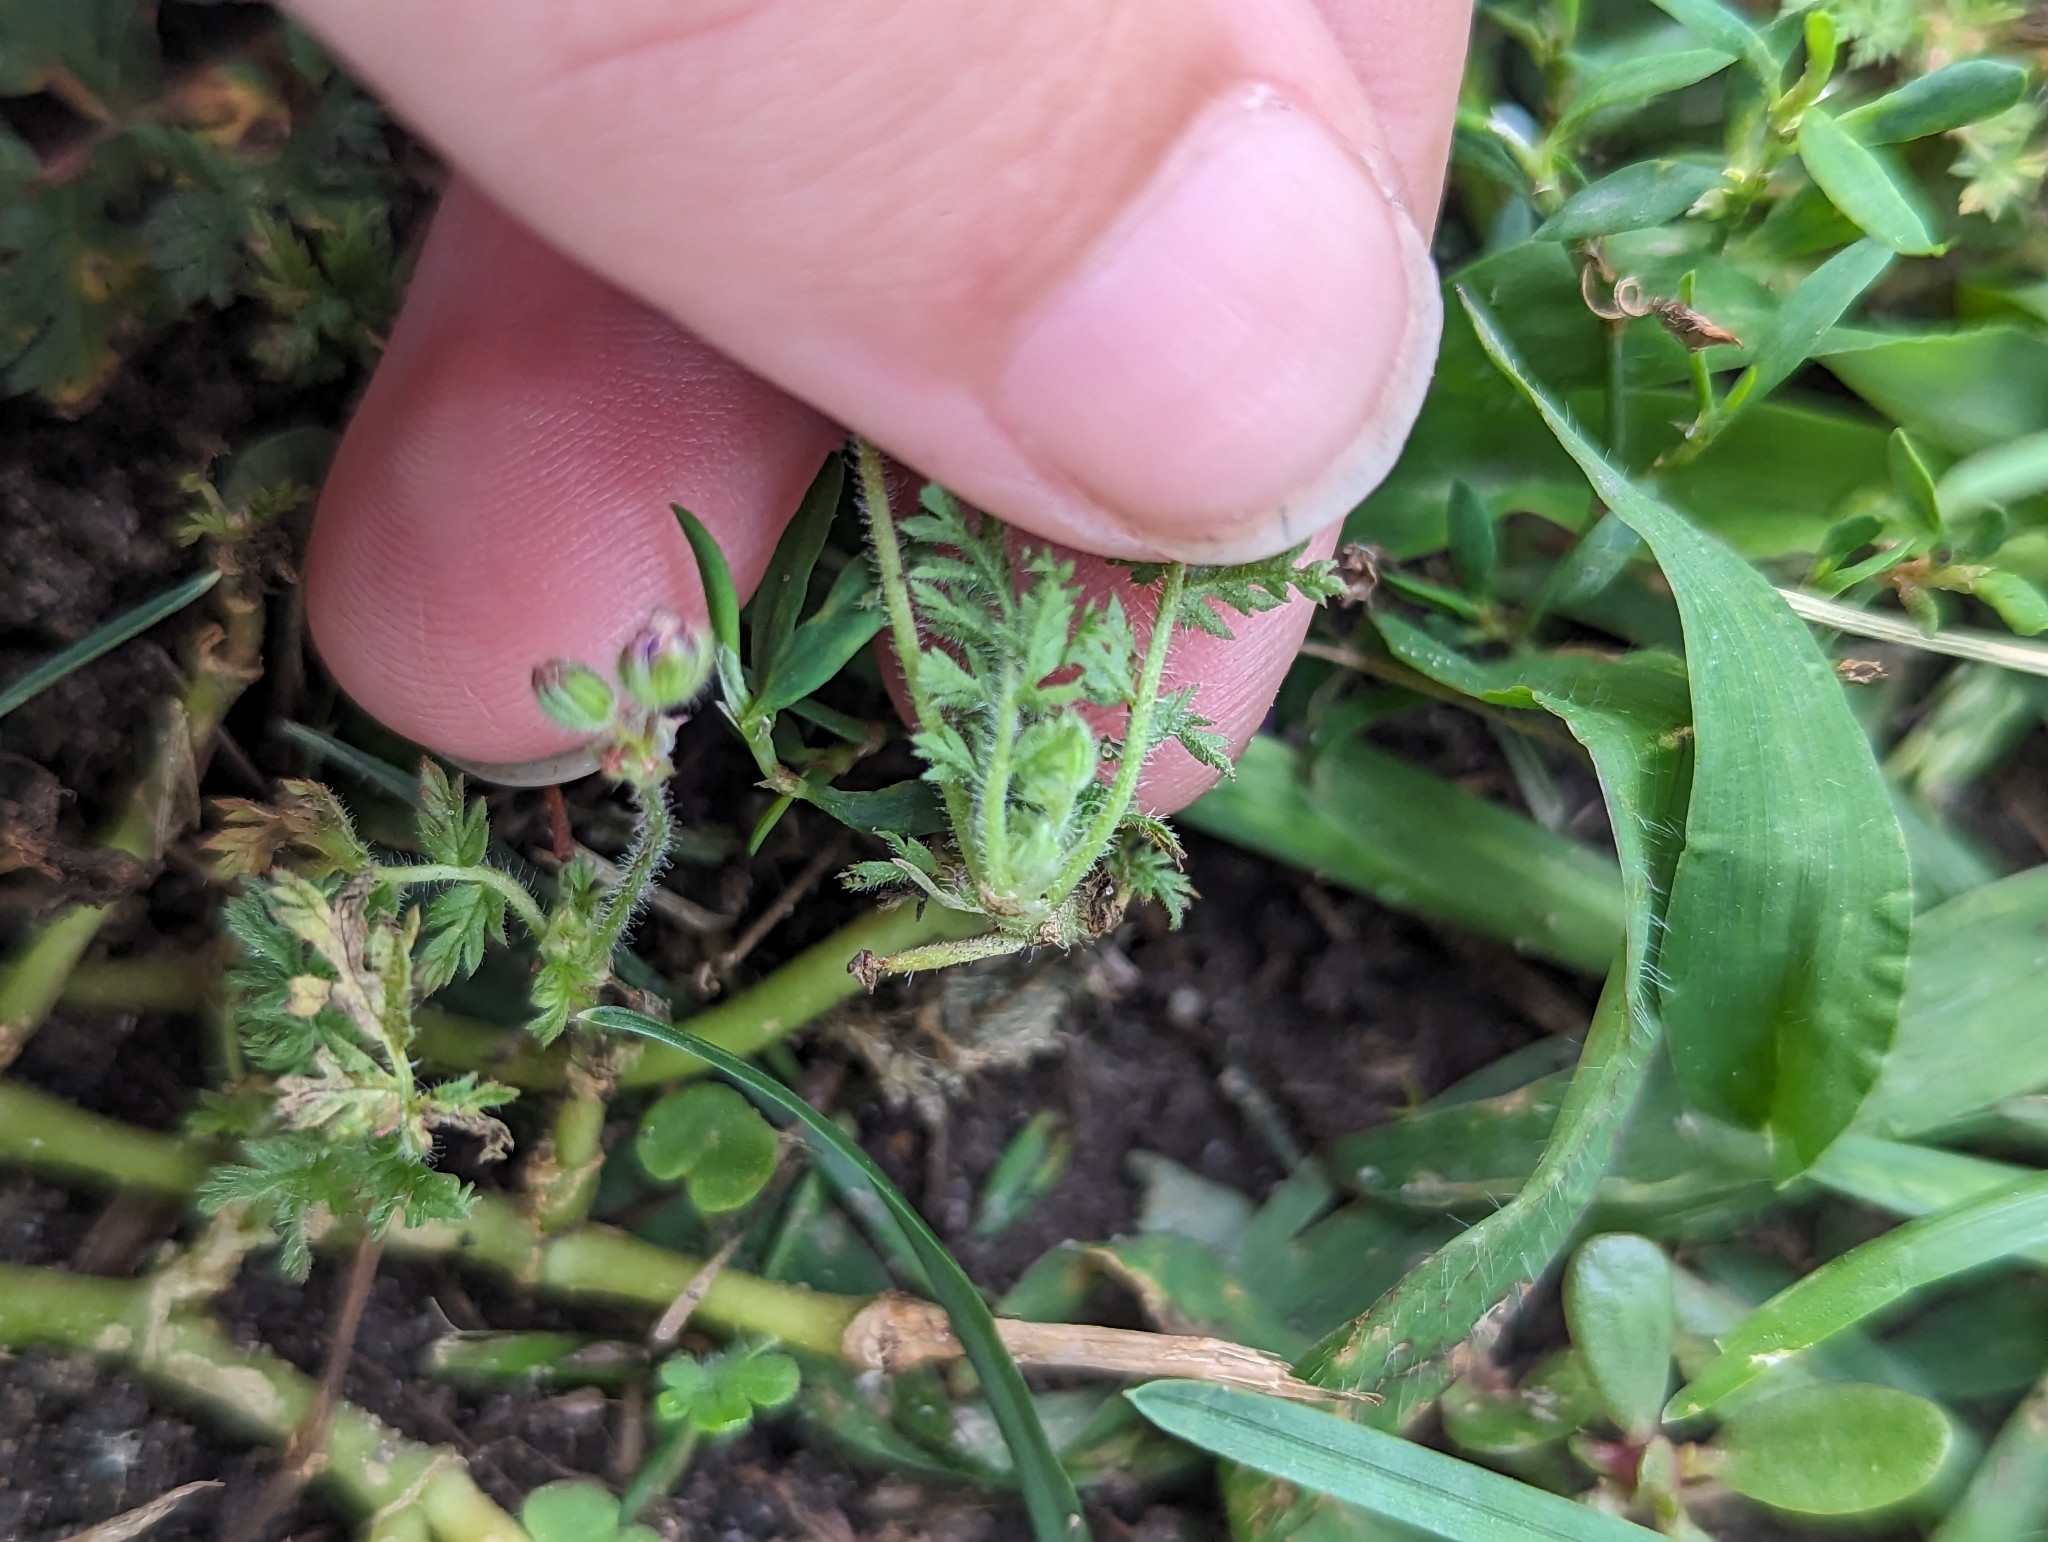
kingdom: Plantae
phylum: Tracheophyta
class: Magnoliopsida
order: Geraniales
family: Geraniaceae
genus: Erodium
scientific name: Erodium cicutarium
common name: Common stork's-bill
